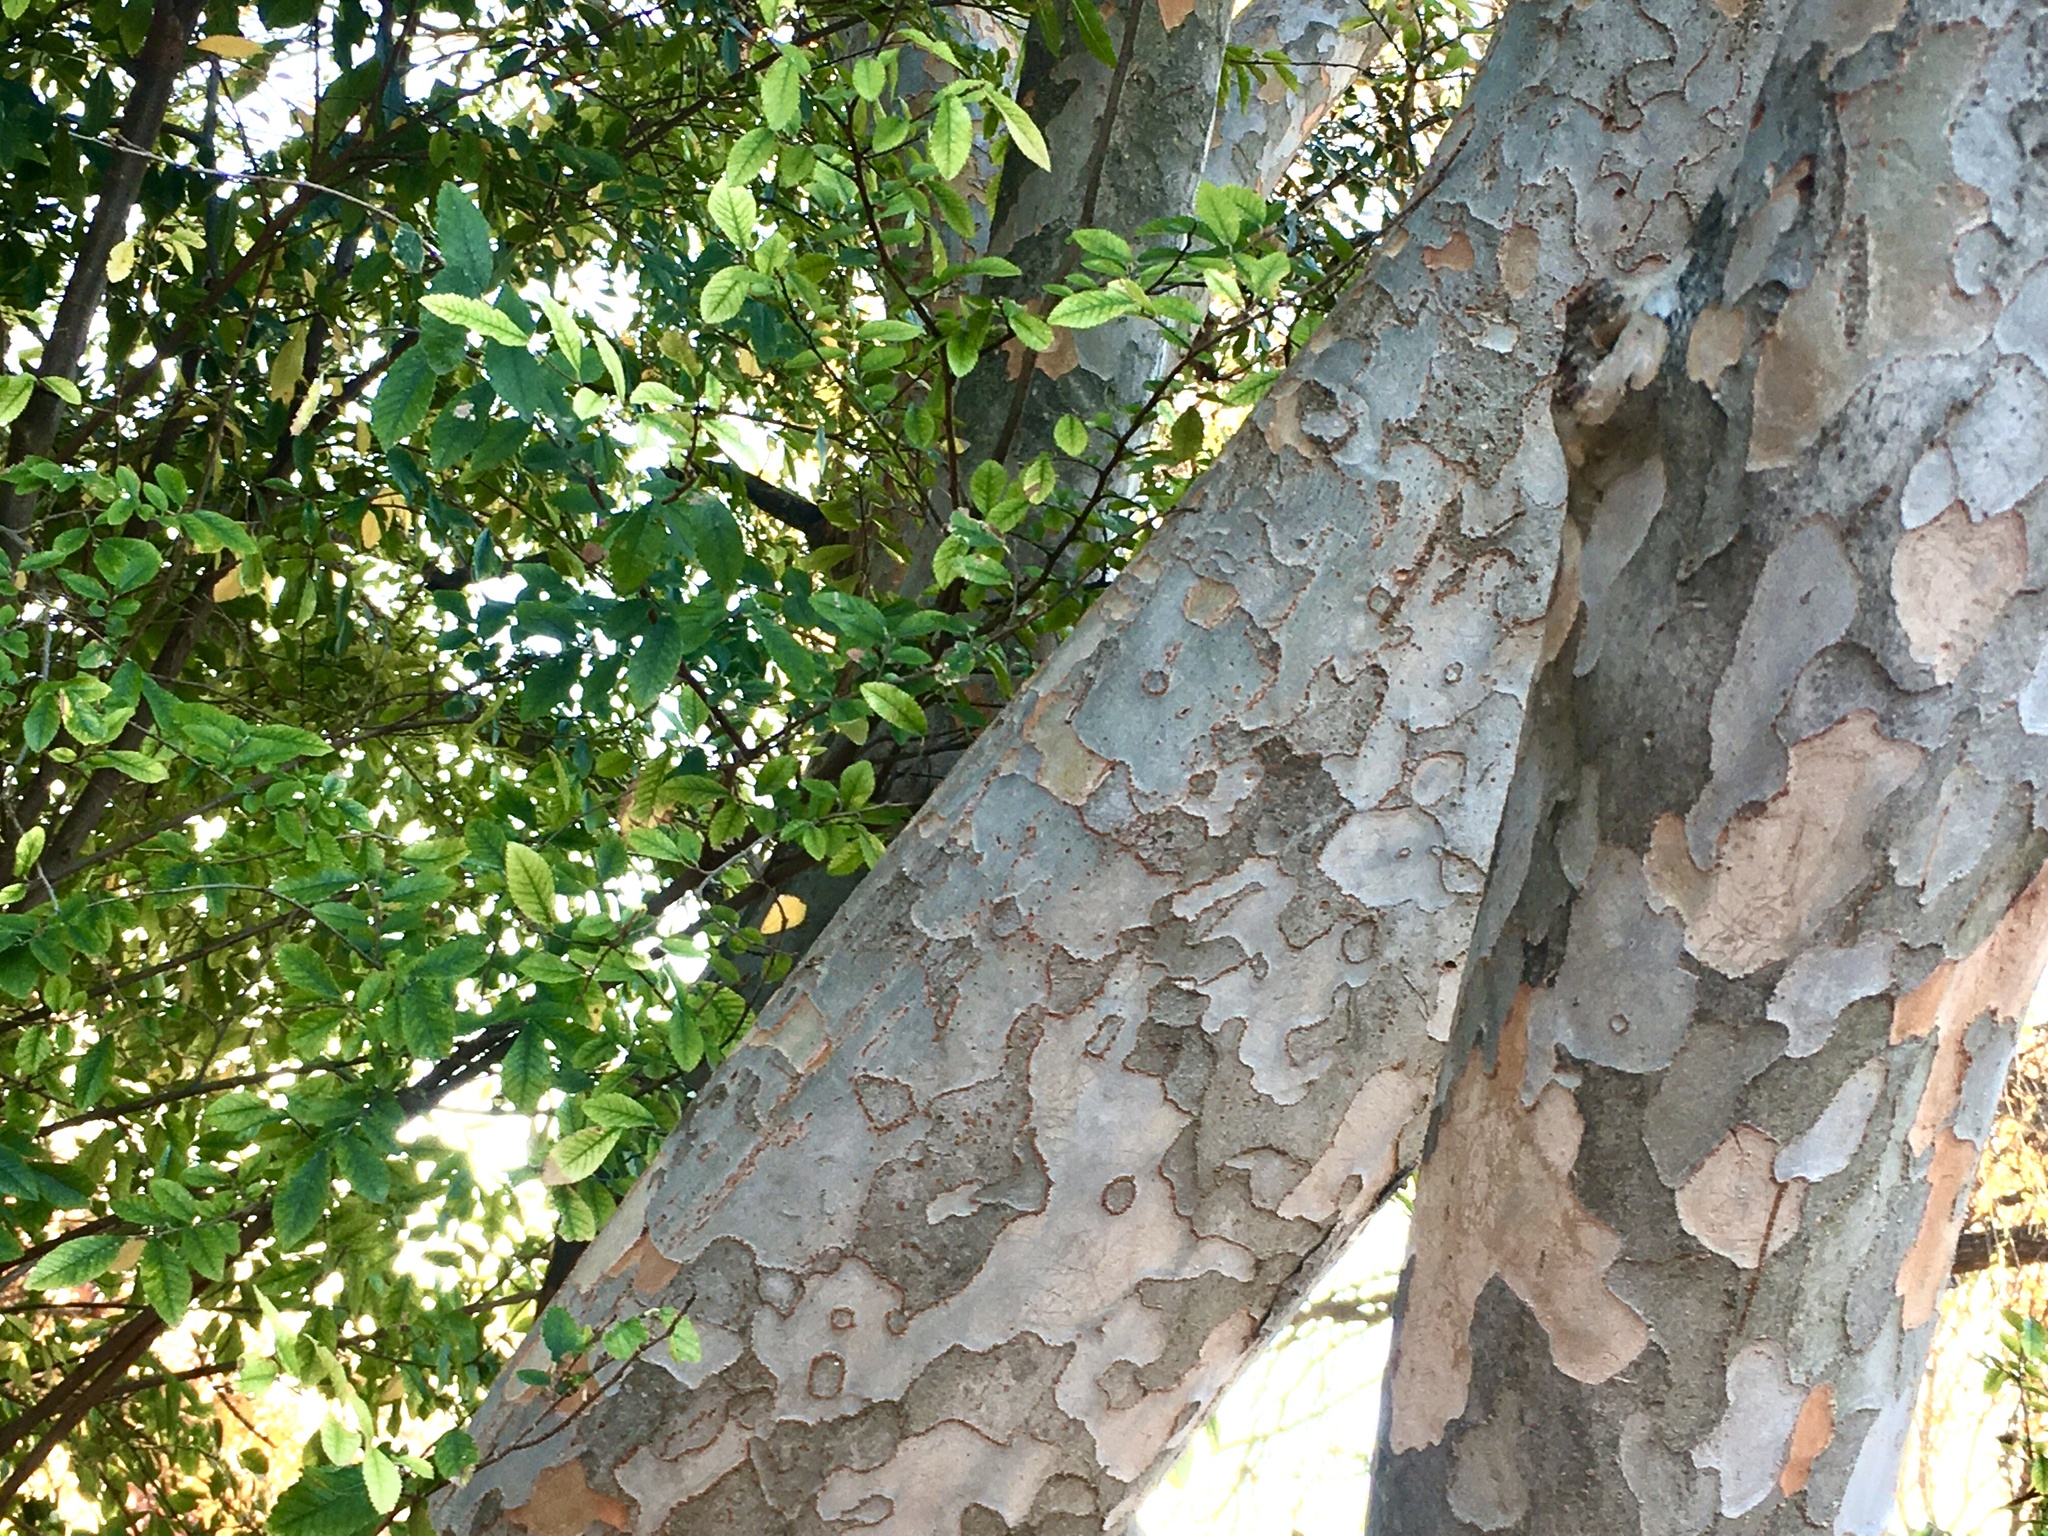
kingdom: Plantae
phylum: Tracheophyta
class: Magnoliopsida
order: Rosales
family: Ulmaceae
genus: Ulmus
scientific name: Ulmus parvifolia
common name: Chinese elm
